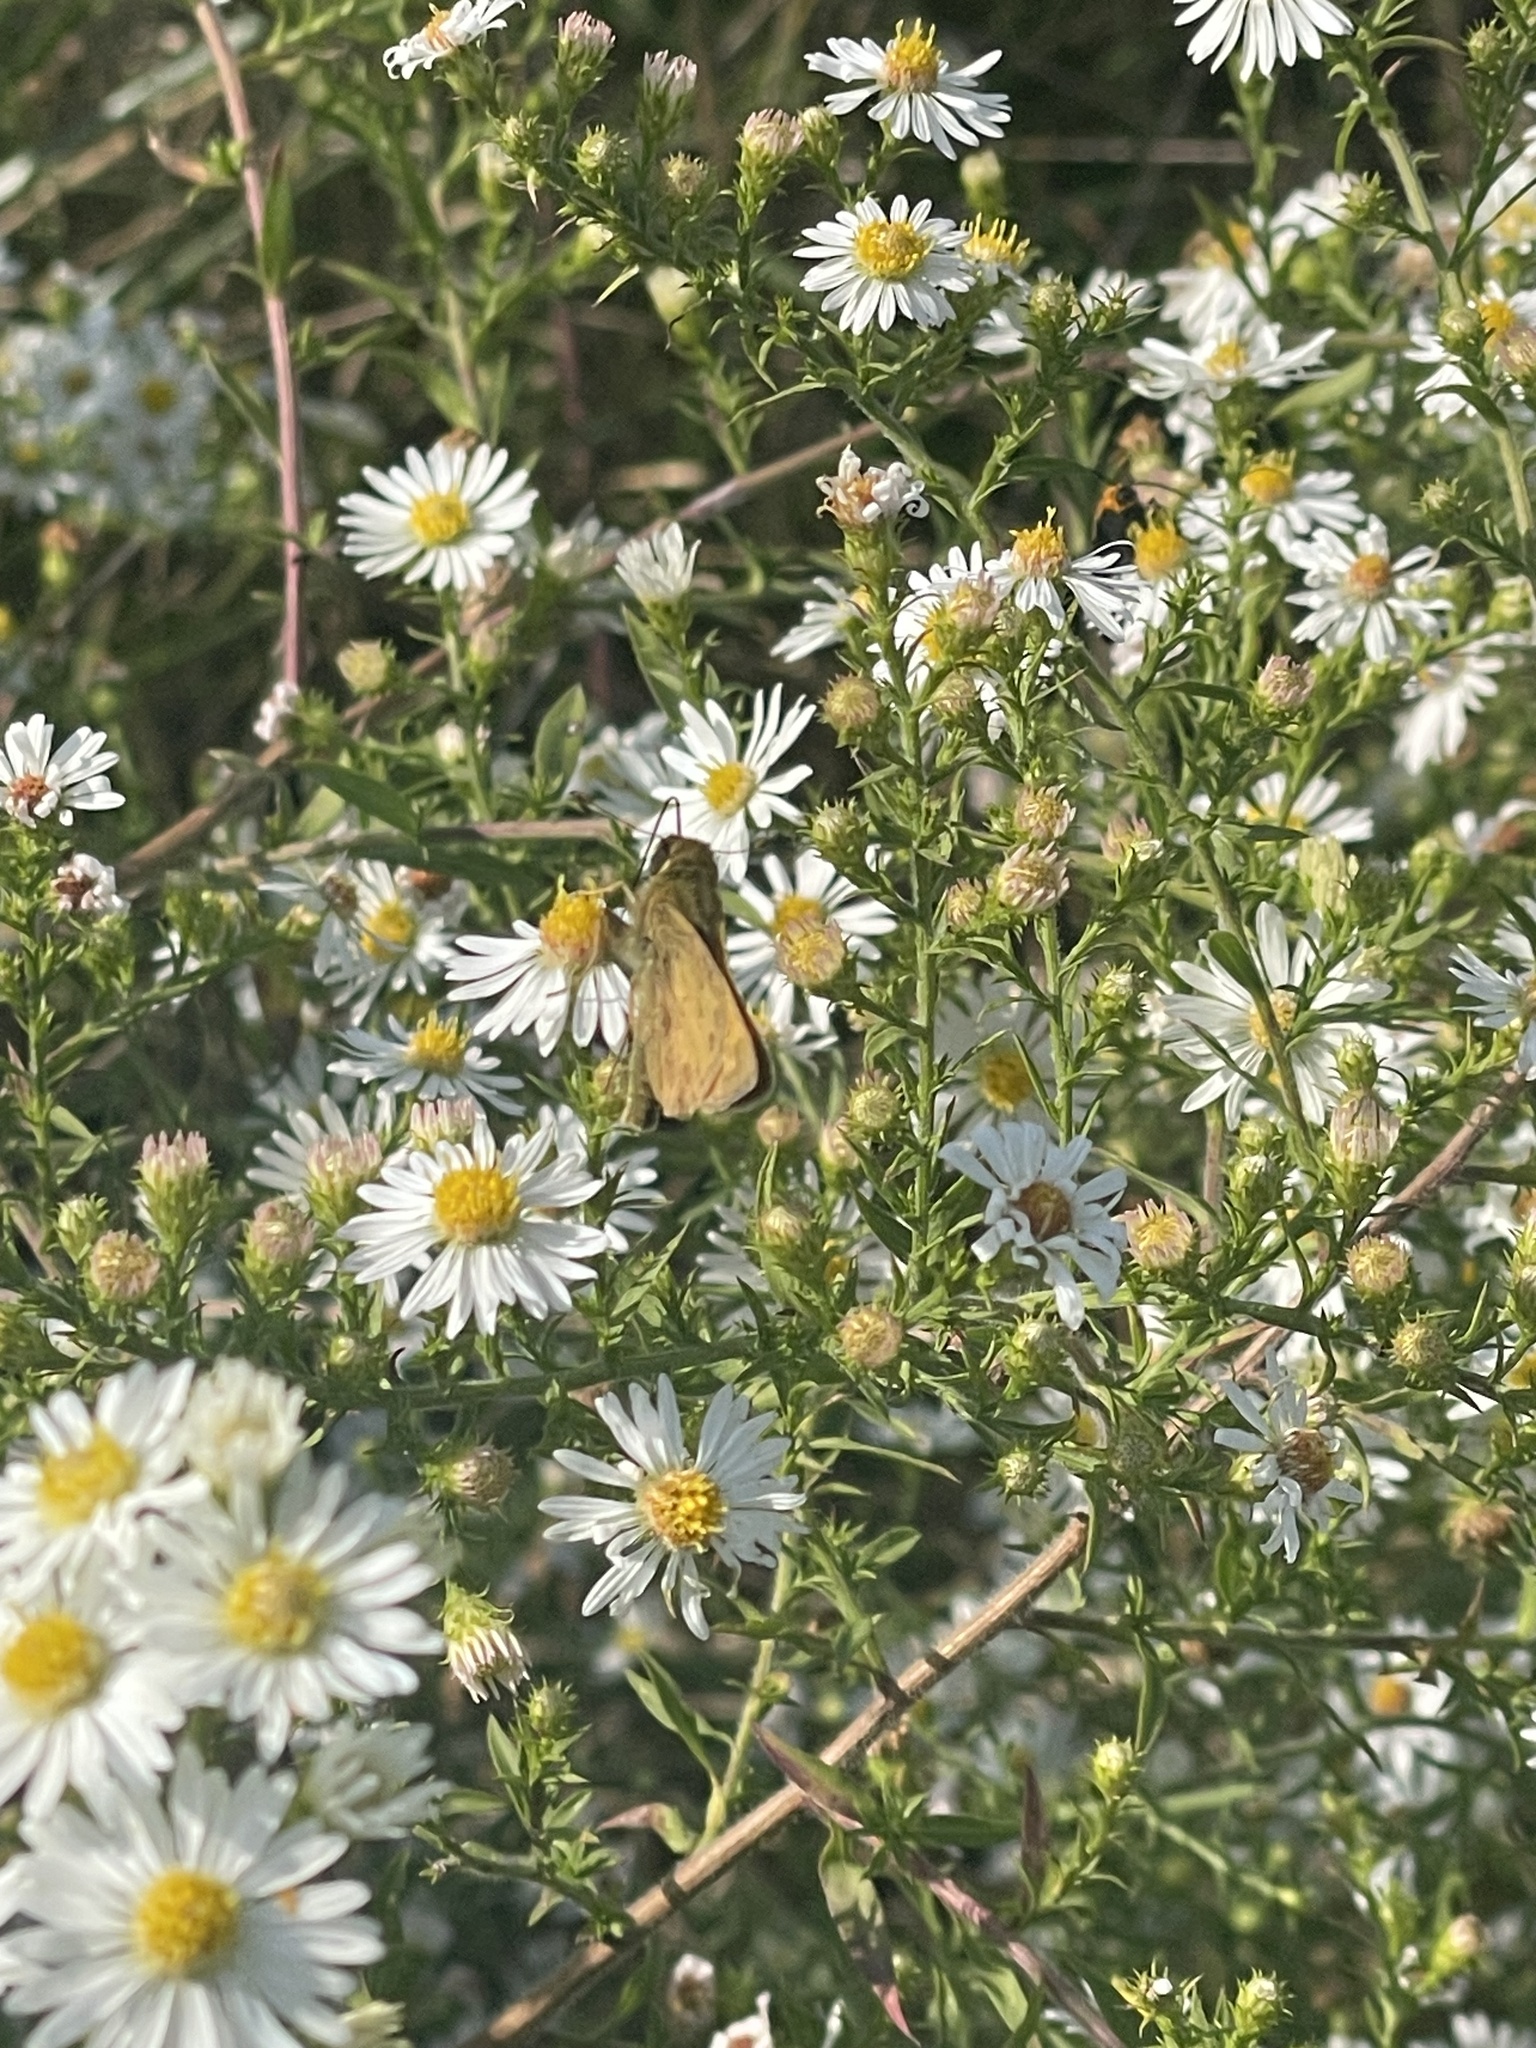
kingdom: Animalia
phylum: Arthropoda
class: Insecta
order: Lepidoptera
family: Hesperiidae
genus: Atalopedes
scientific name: Atalopedes
